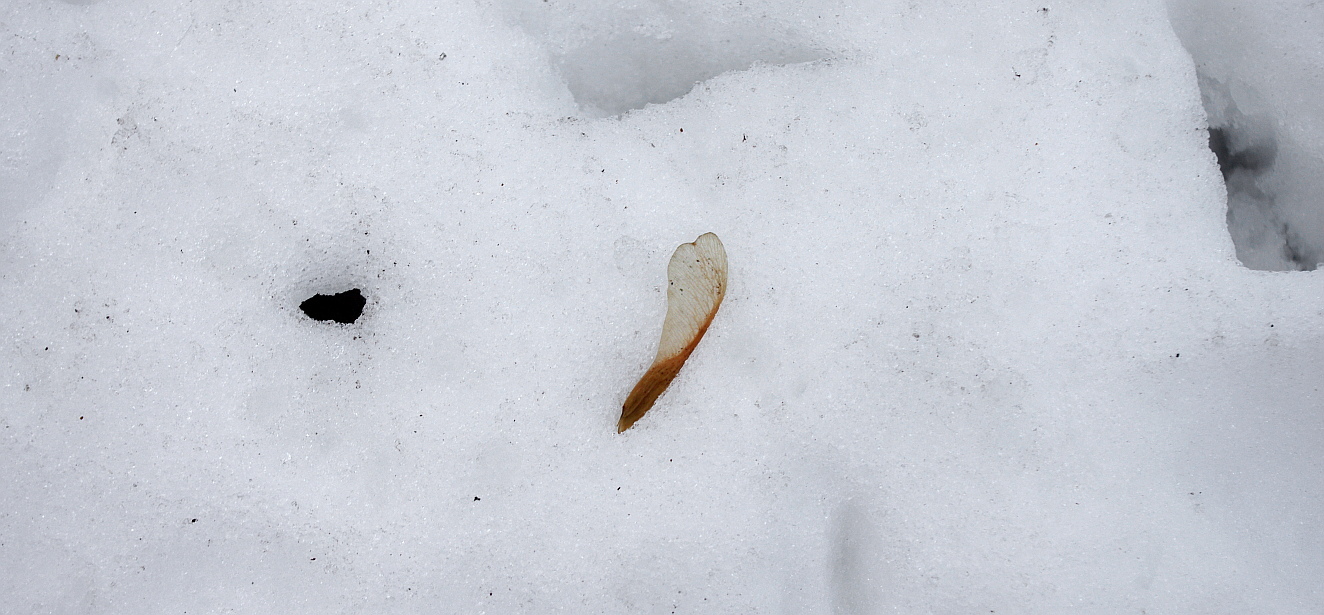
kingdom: Plantae
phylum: Tracheophyta
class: Magnoliopsida
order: Sapindales
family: Sapindaceae
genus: Acer
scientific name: Acer negundo
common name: Ashleaf maple
